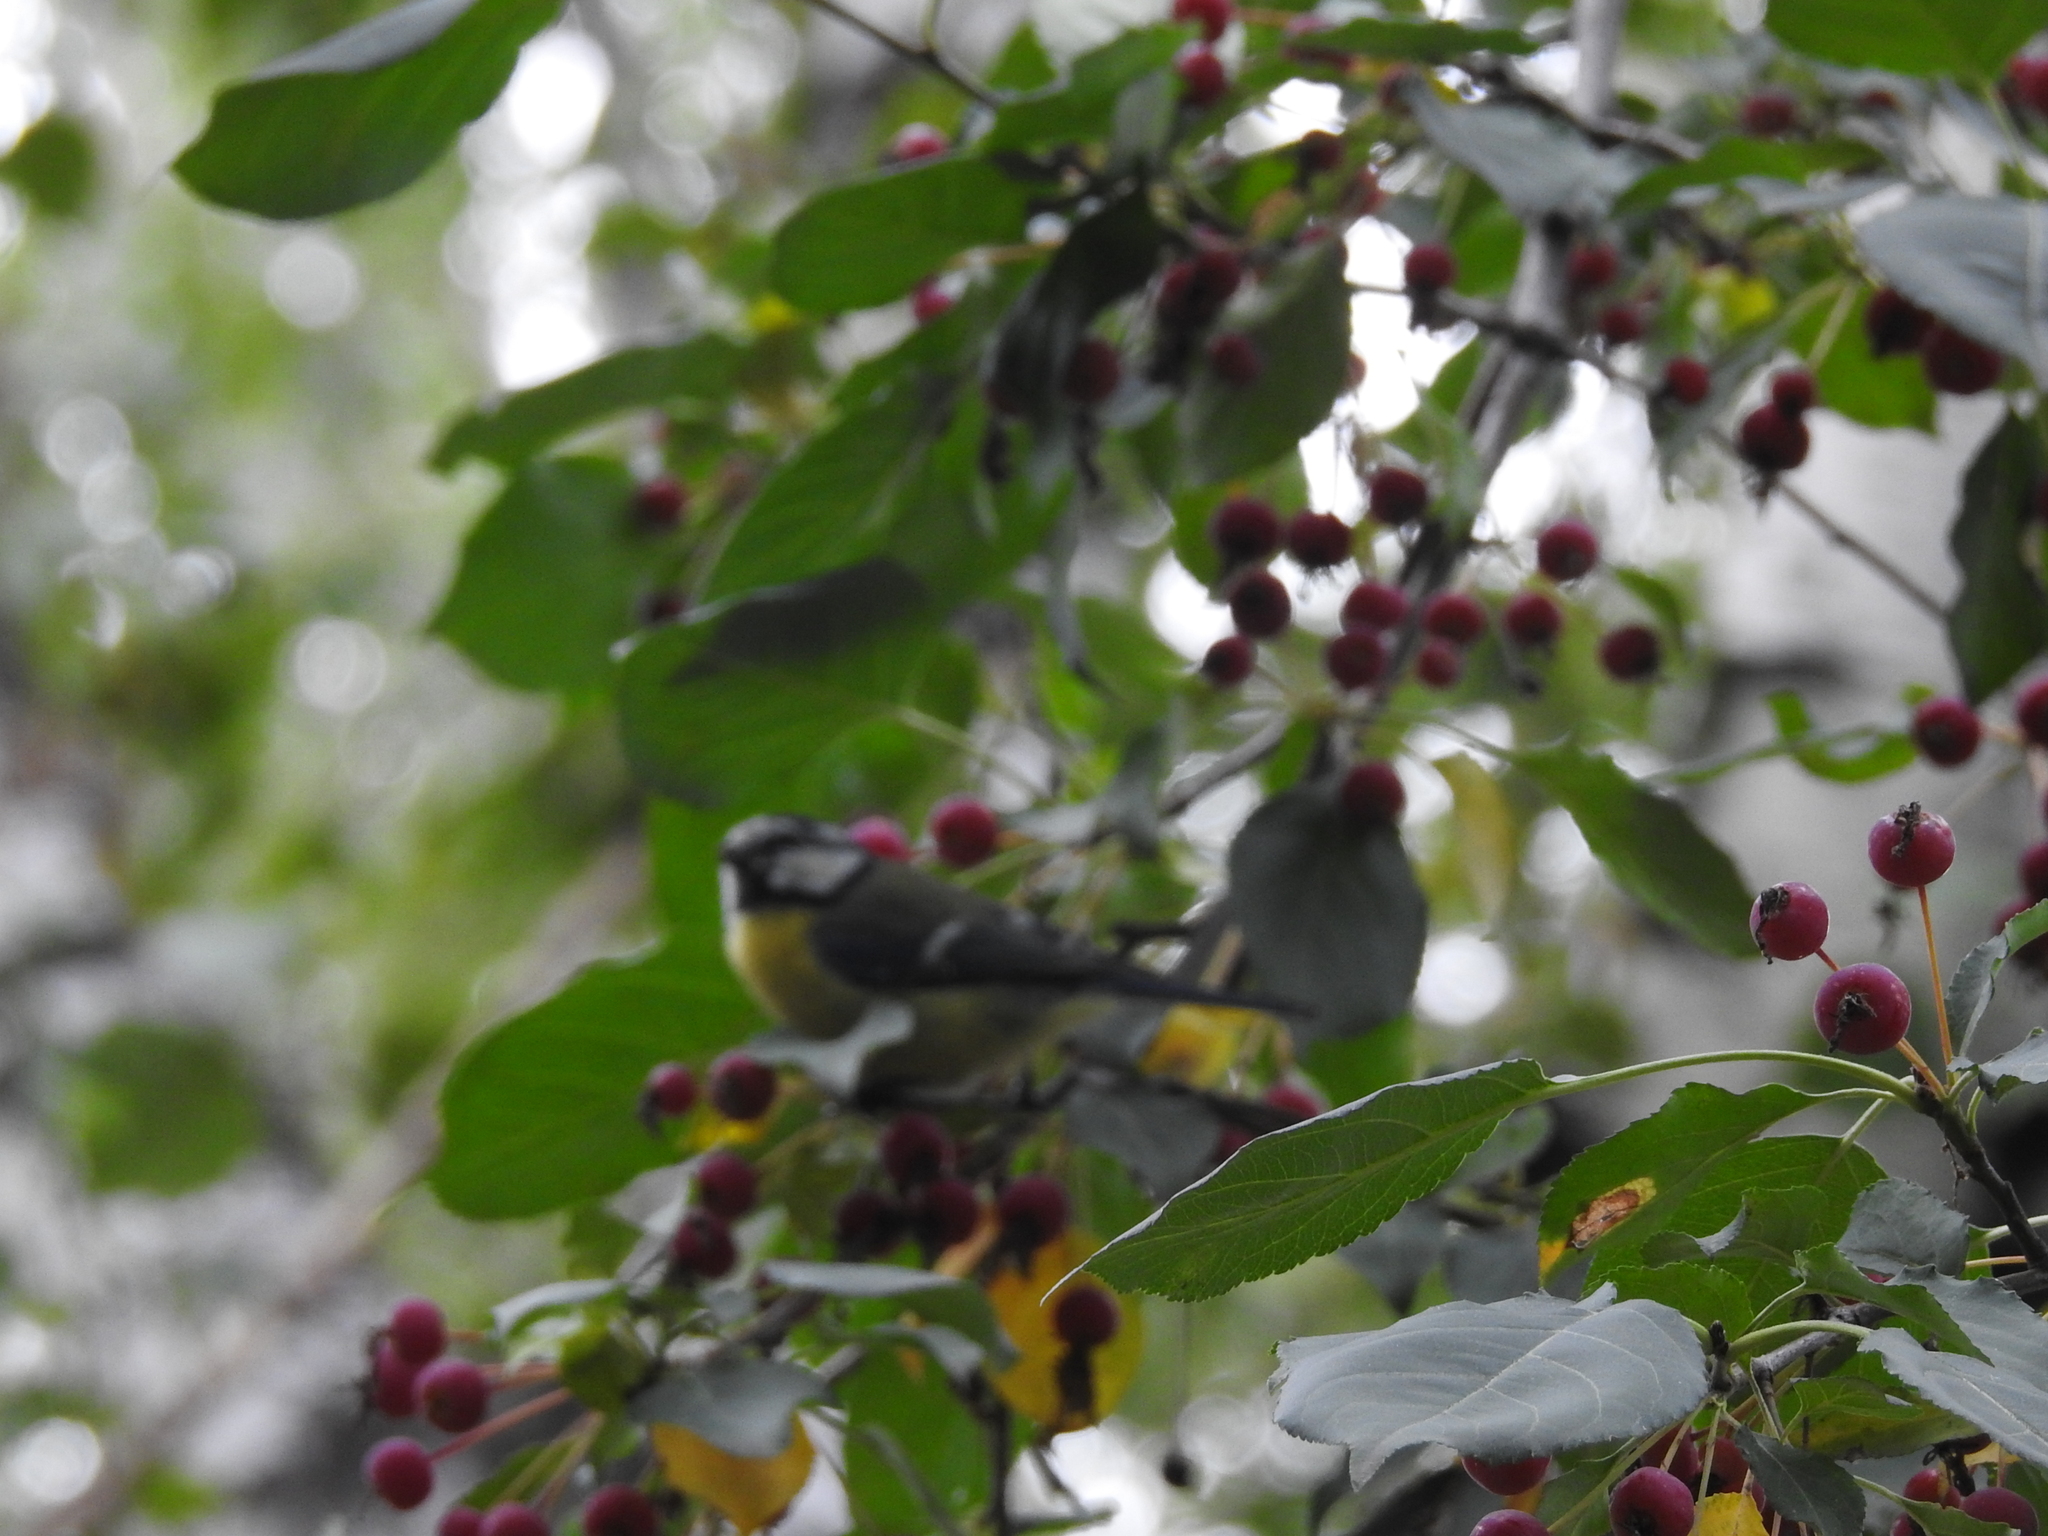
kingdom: Animalia
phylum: Chordata
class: Aves
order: Passeriformes
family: Paridae
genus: Cyanistes
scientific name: Cyanistes caeruleus
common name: Eurasian blue tit
